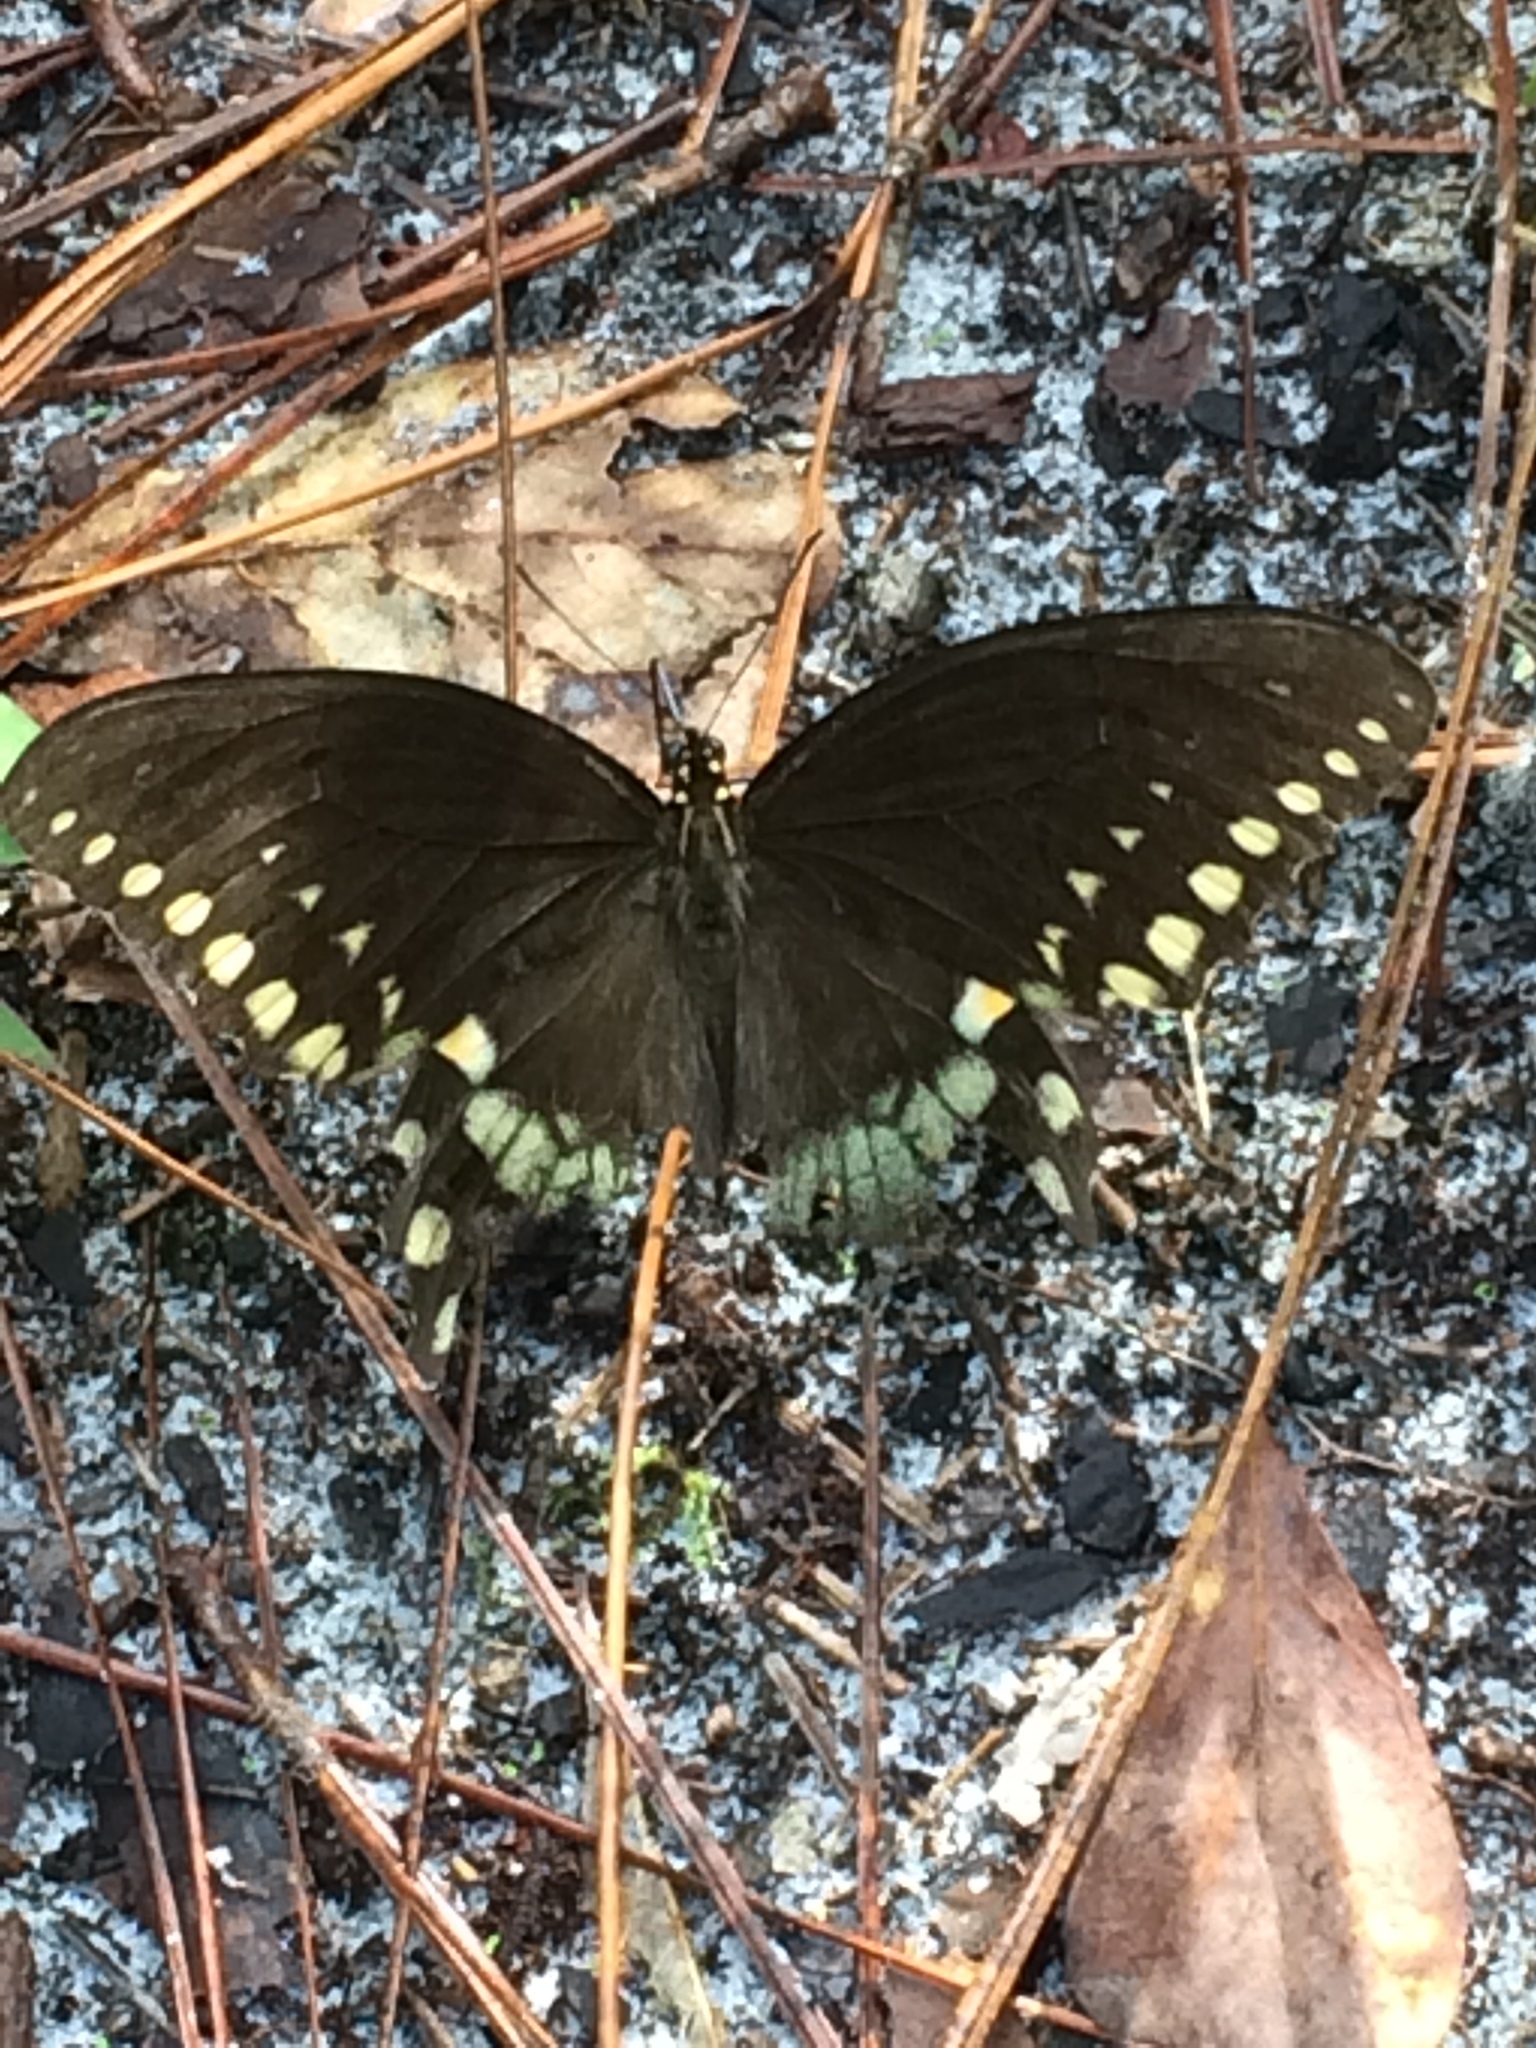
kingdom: Animalia
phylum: Arthropoda
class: Insecta
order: Lepidoptera
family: Papilionidae
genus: Papilio
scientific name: Papilio troilus
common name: Spicebush swallowtail
